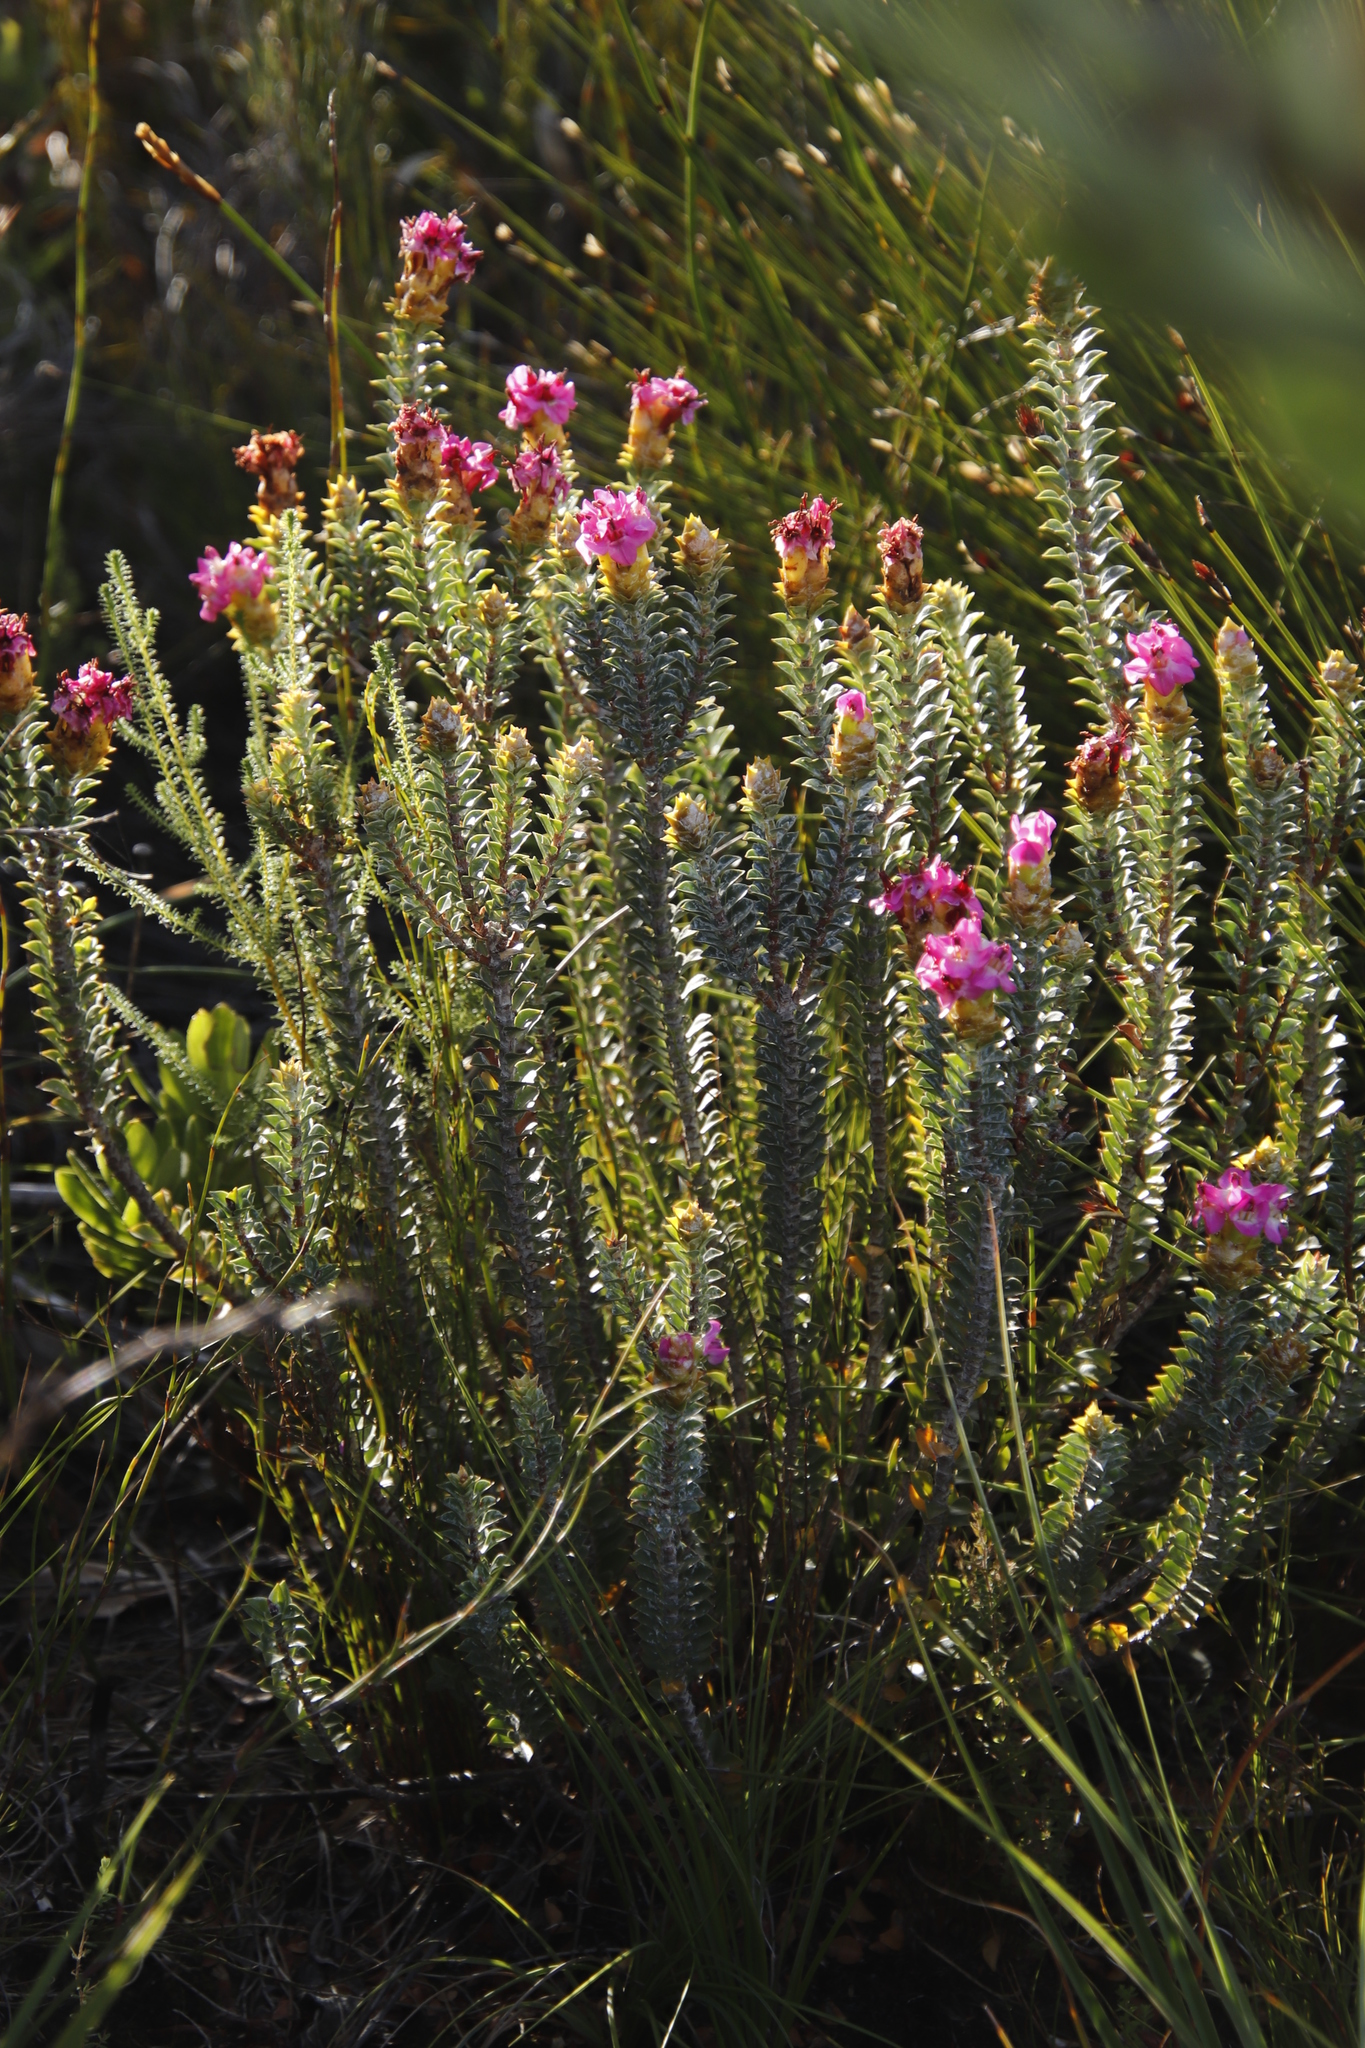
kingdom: Plantae
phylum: Tracheophyta
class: Magnoliopsida
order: Myrtales
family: Penaeaceae
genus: Saltera
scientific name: Saltera sarcocolla
